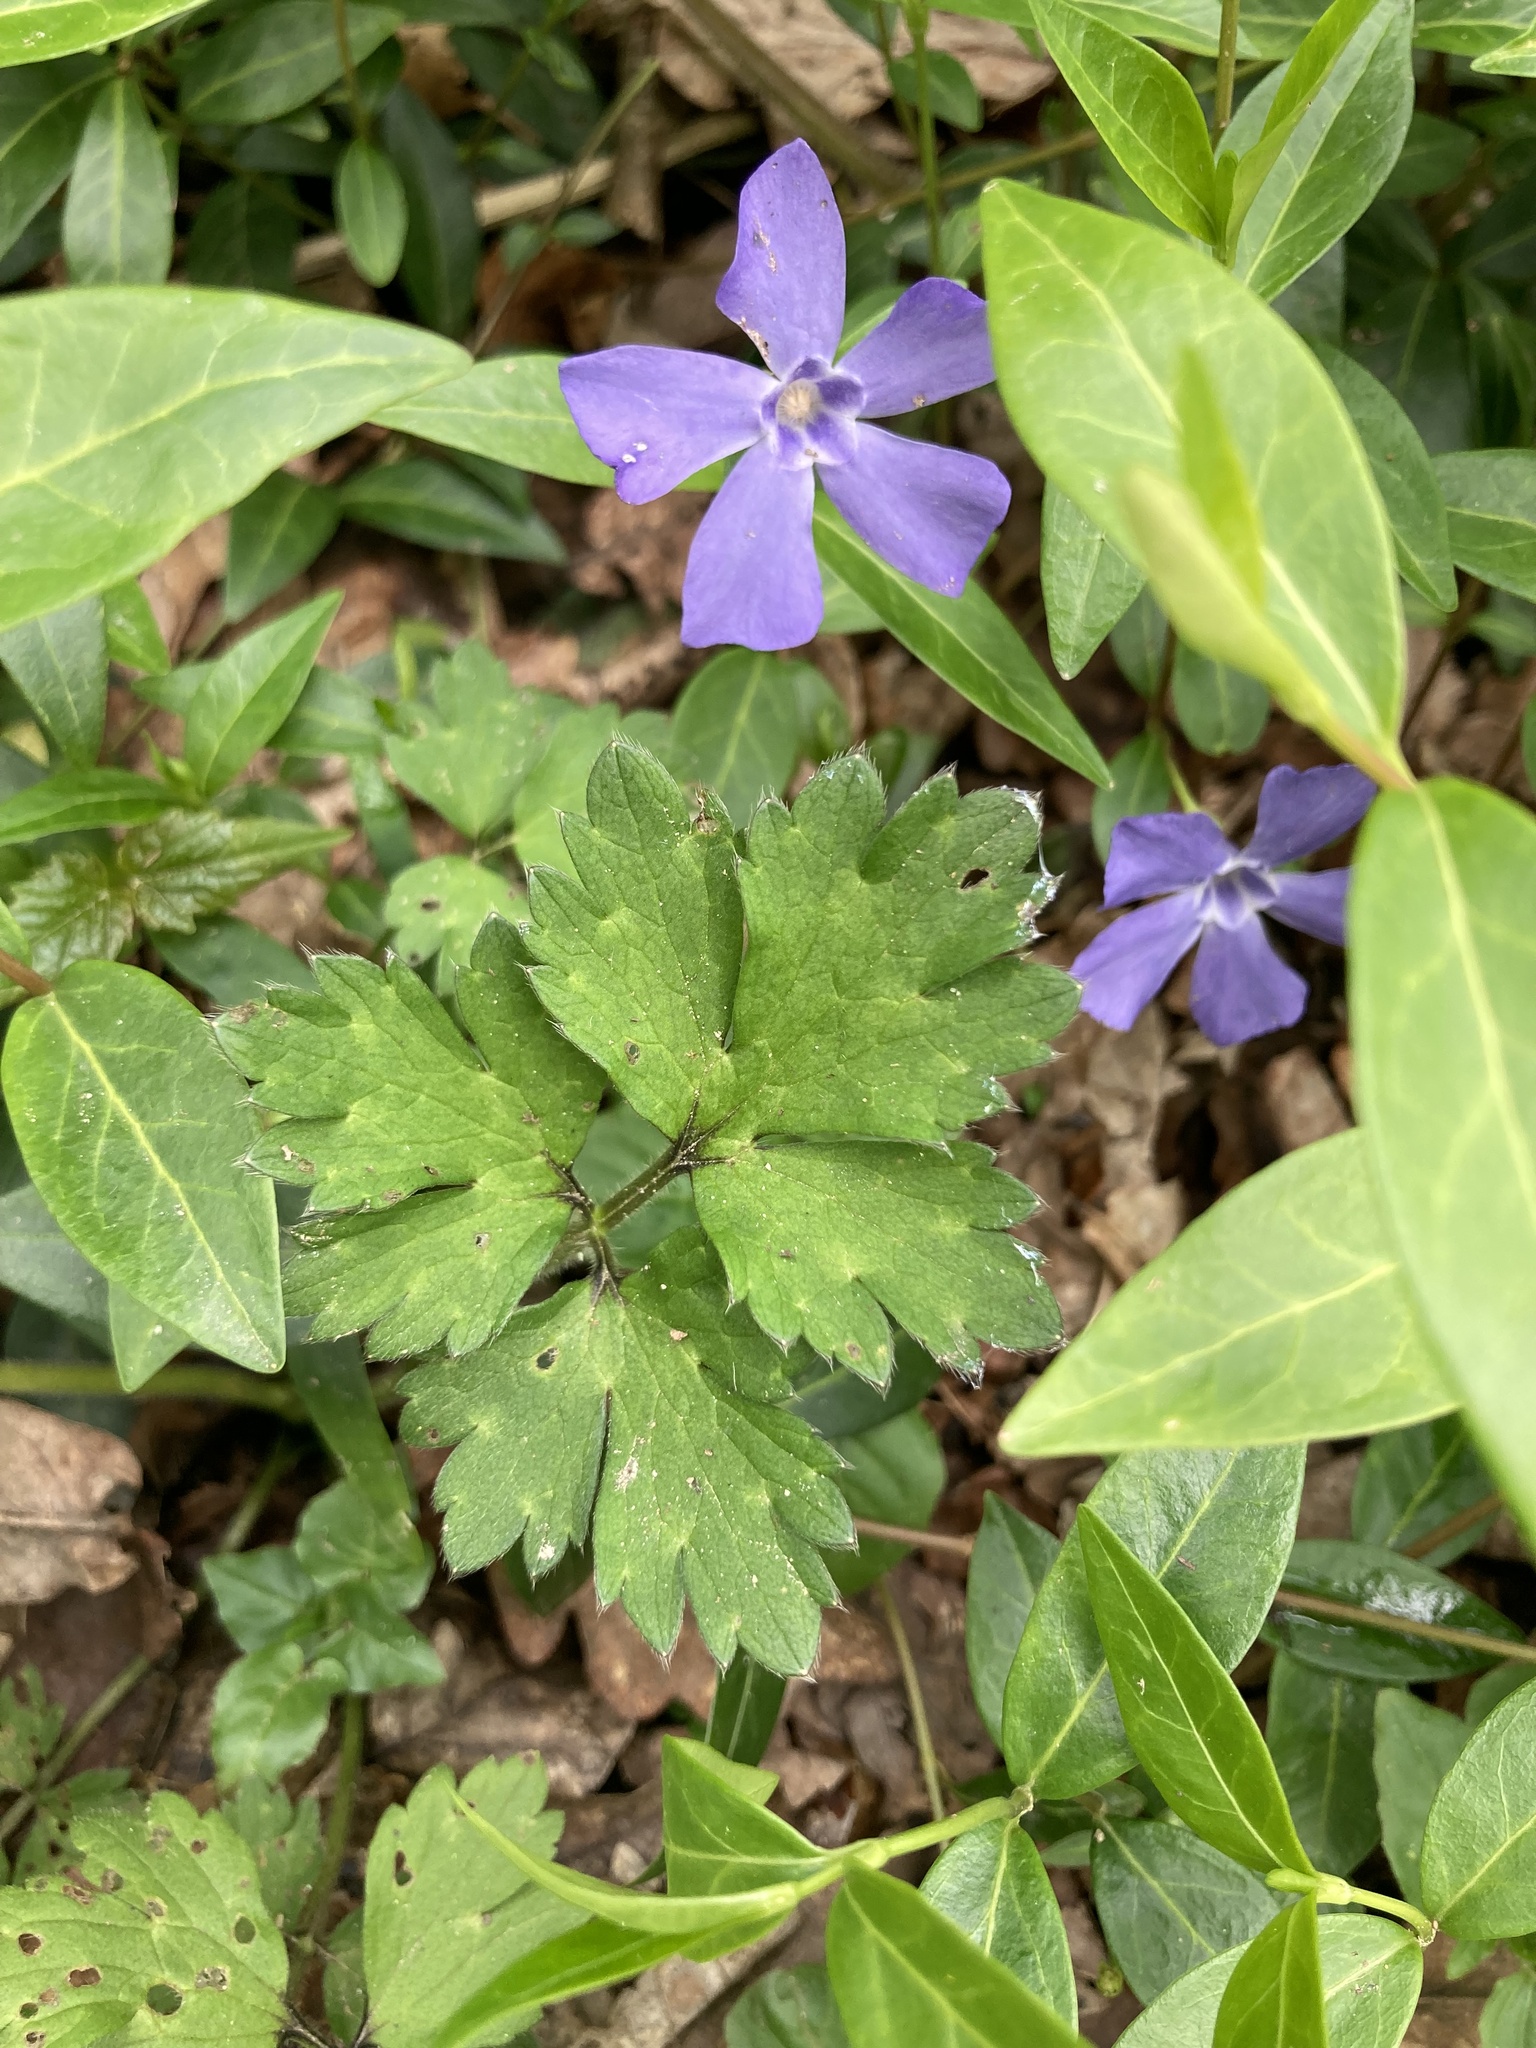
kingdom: Plantae
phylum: Tracheophyta
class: Magnoliopsida
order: Gentianales
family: Apocynaceae
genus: Vinca
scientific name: Vinca minor
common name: Lesser periwinkle
